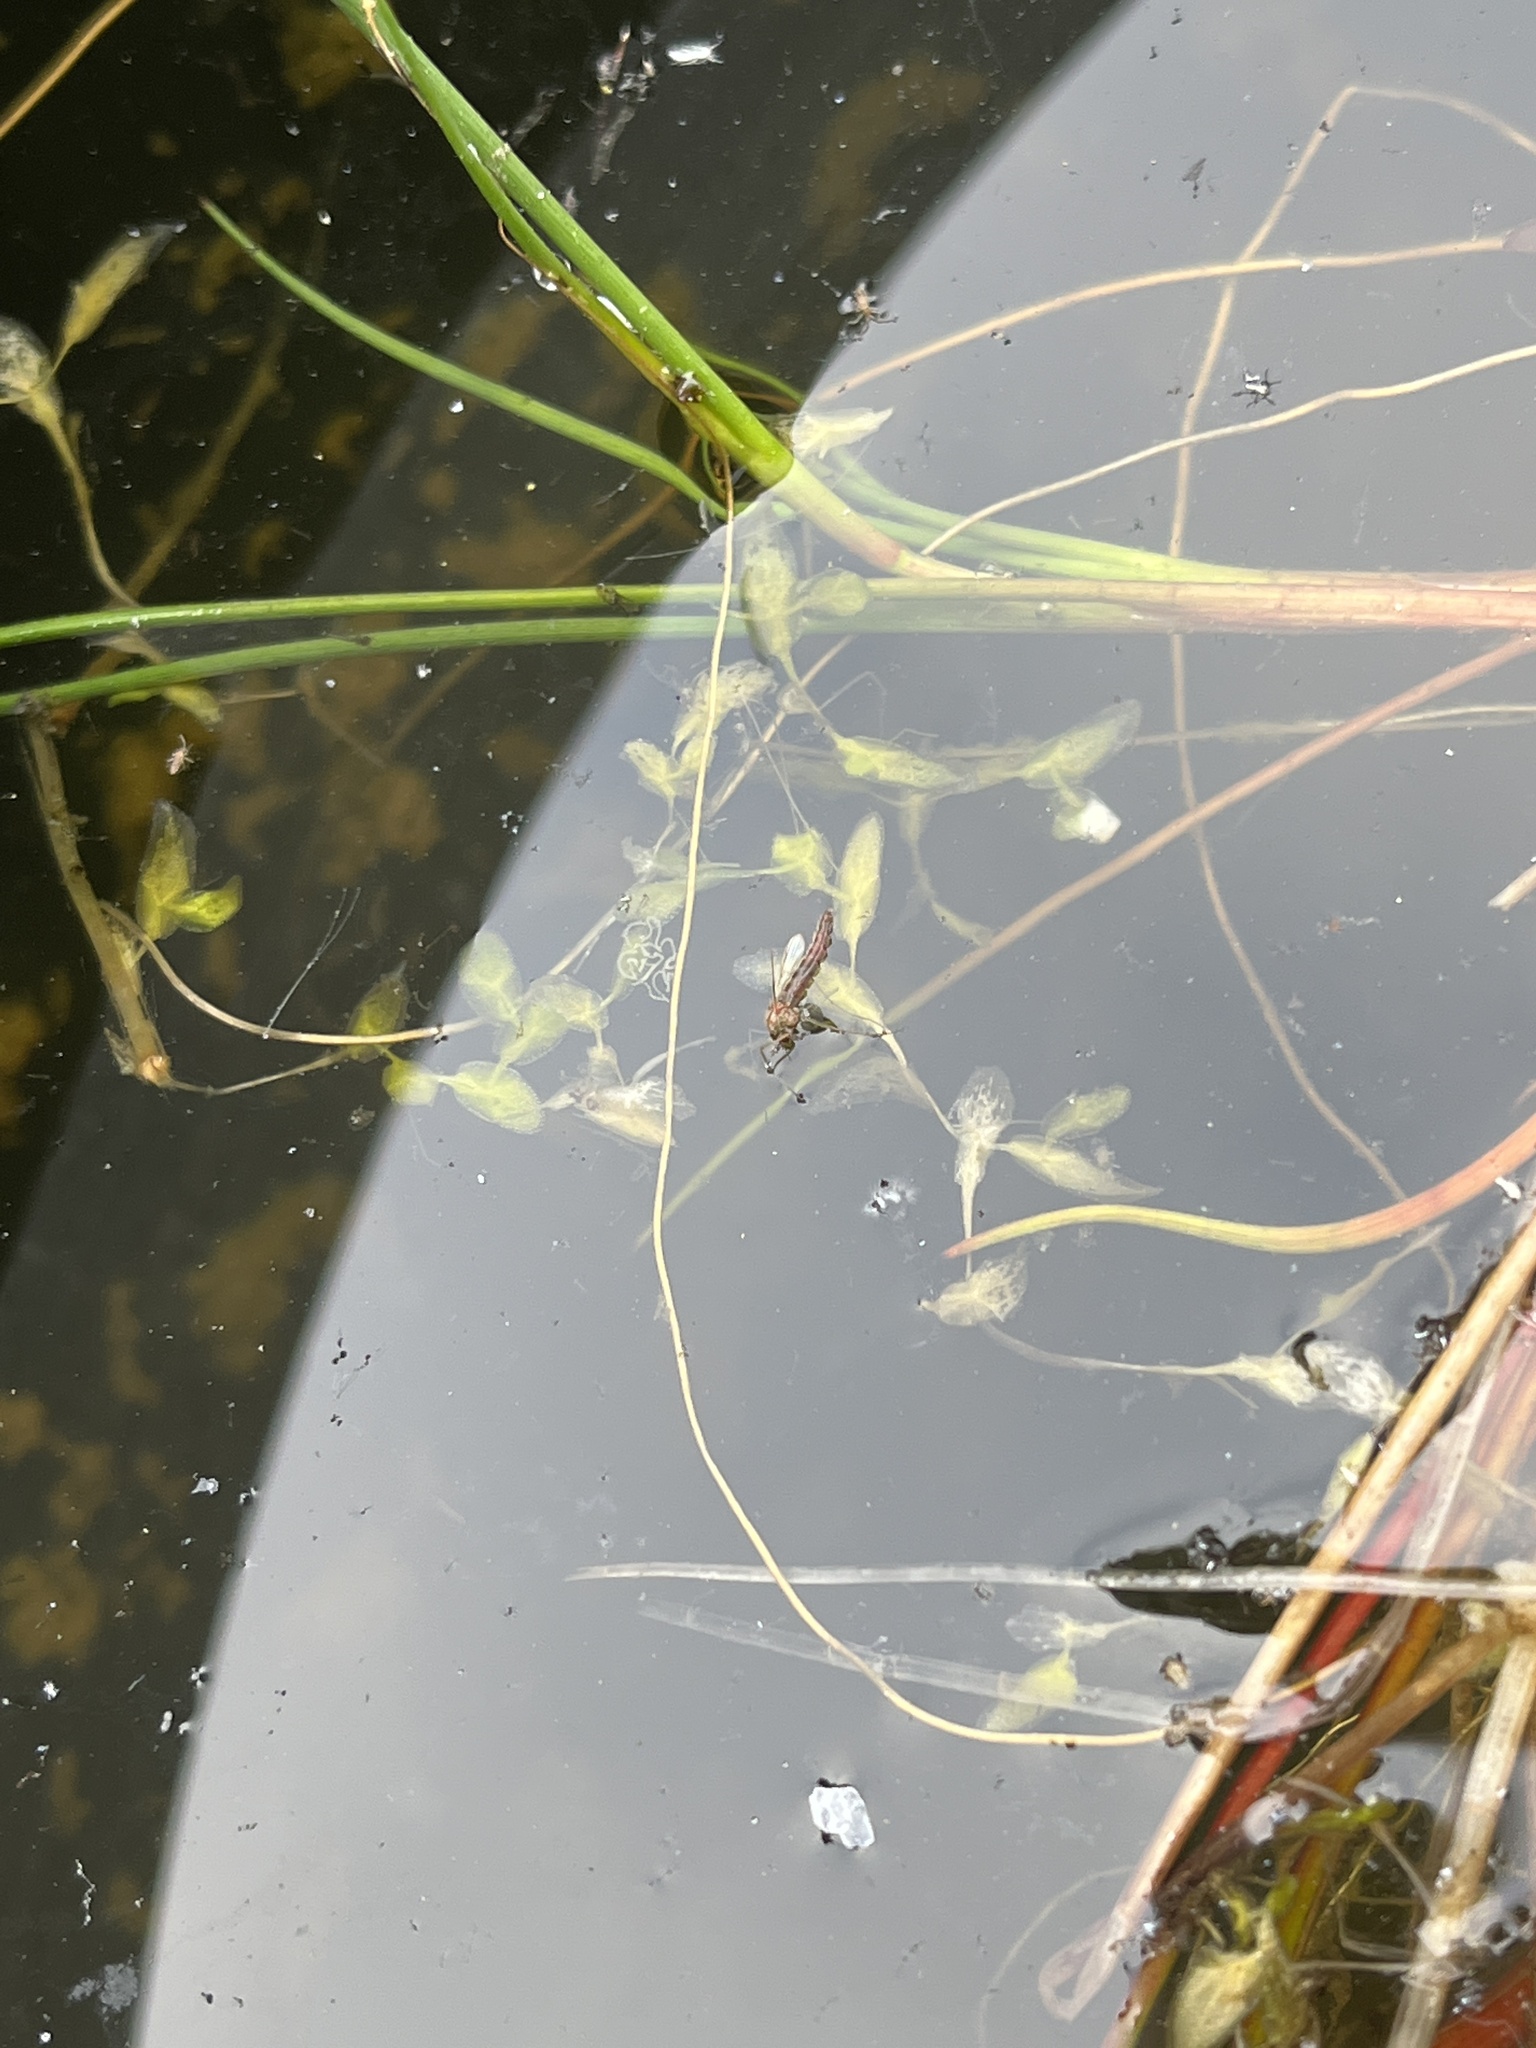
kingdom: Plantae
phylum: Tracheophyta
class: Liliopsida
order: Alismatales
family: Araceae
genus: Lemna
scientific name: Lemna trisulca
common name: Ivy-leaved duckweed
